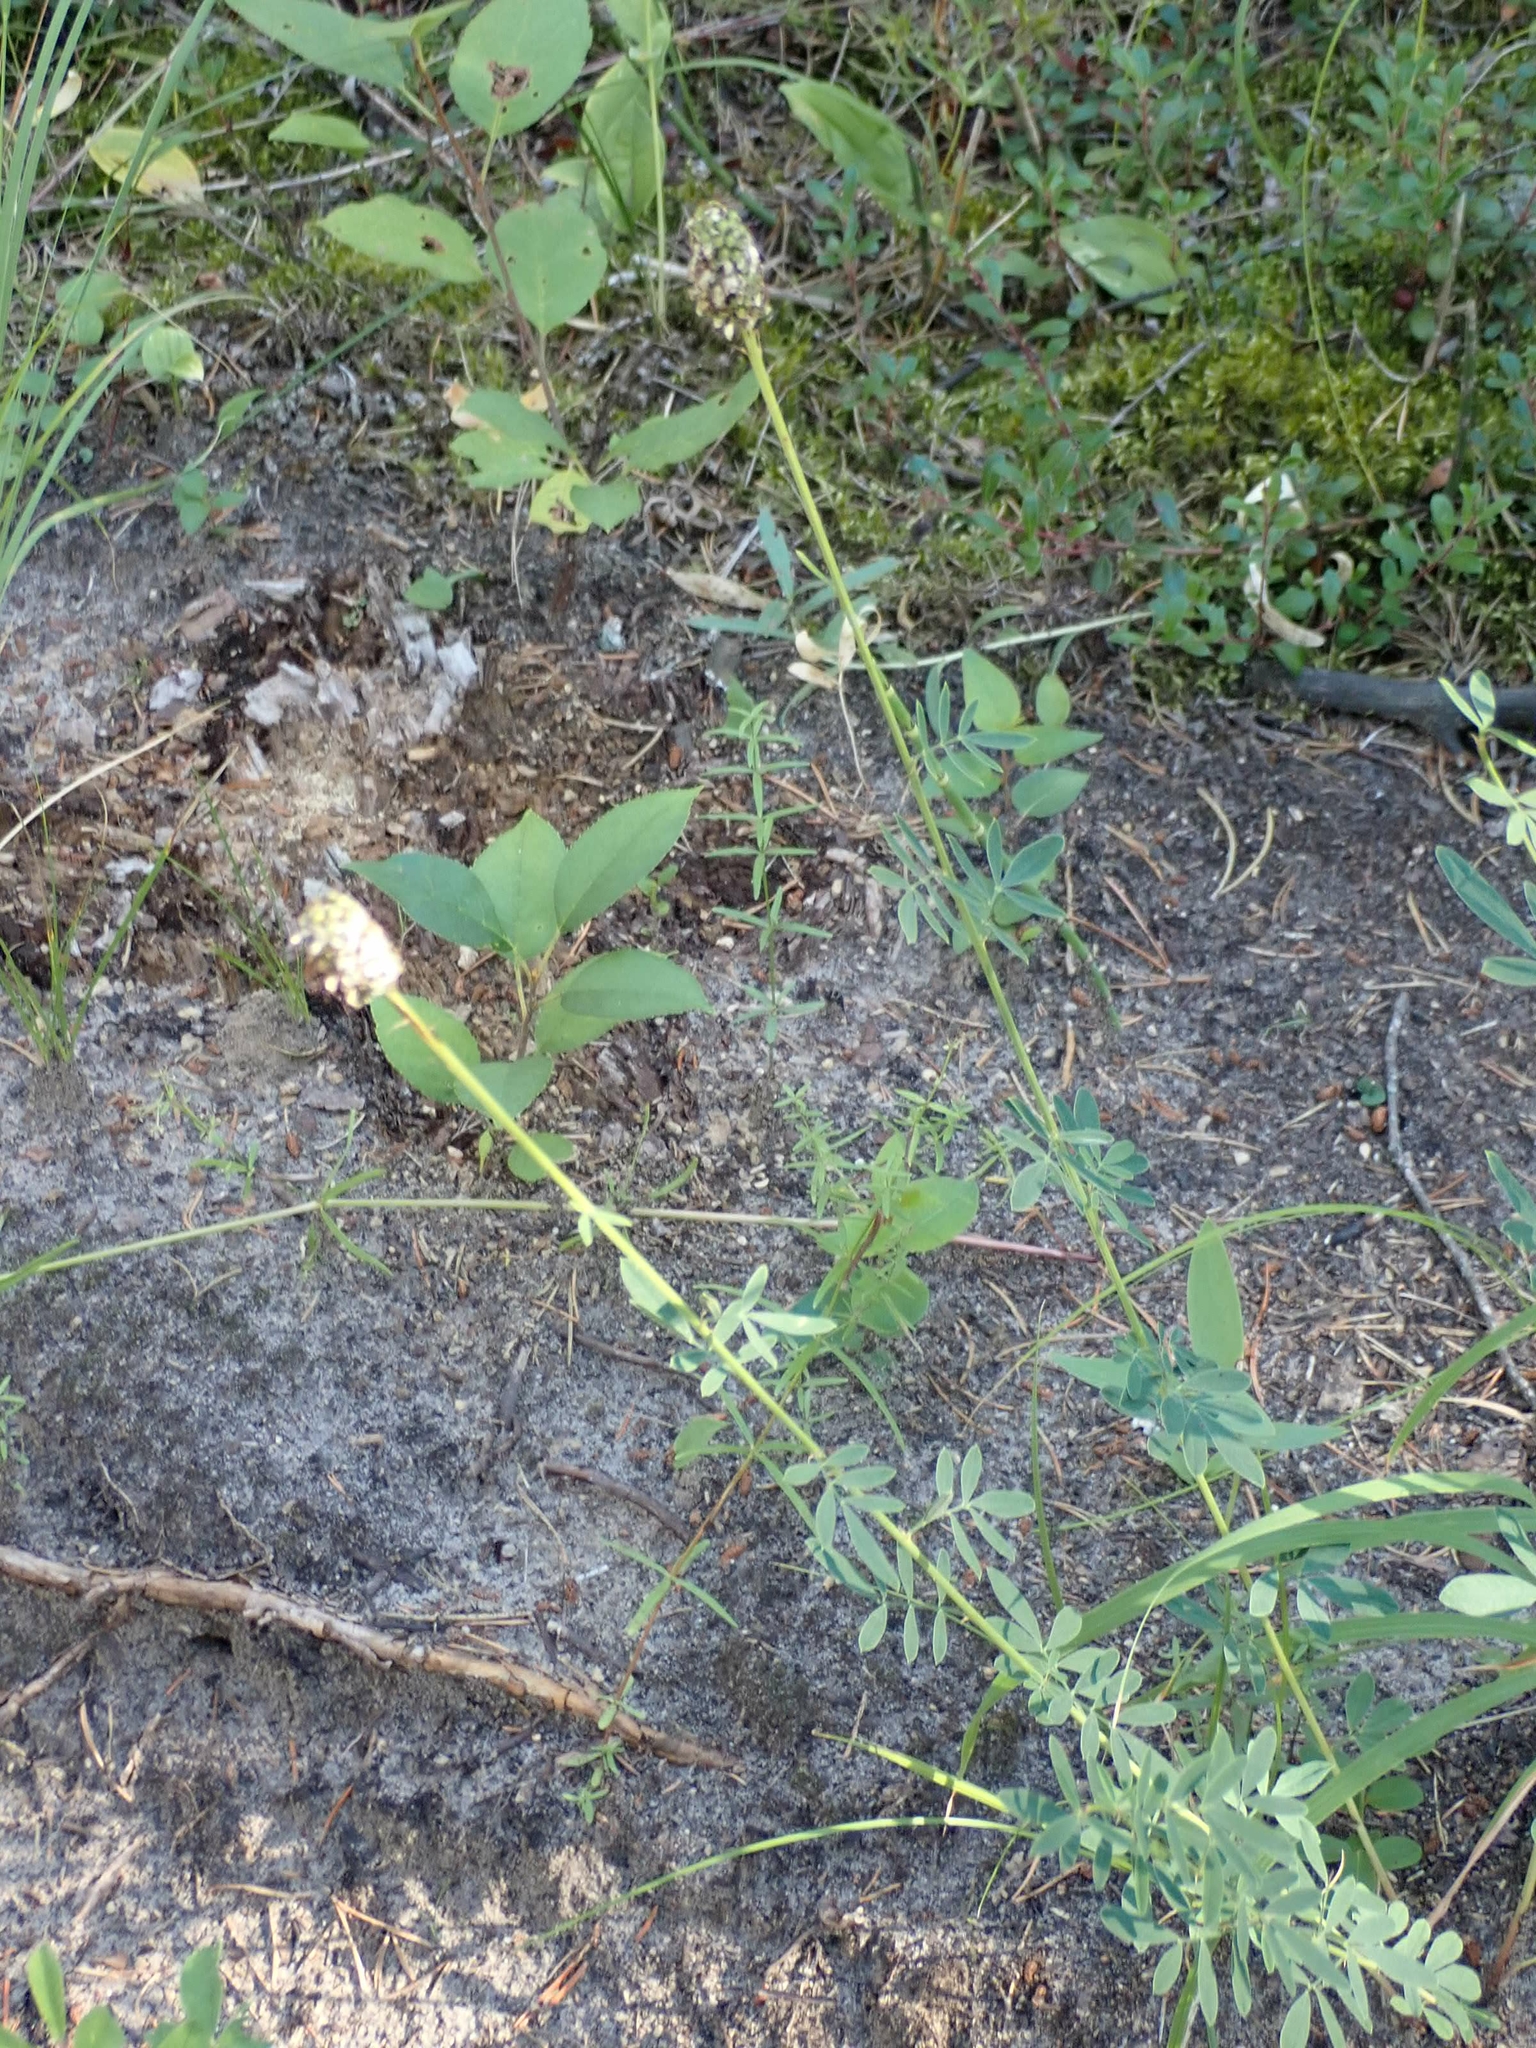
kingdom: Plantae
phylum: Tracheophyta
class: Magnoliopsida
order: Fabales
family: Fabaceae
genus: Dalea
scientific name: Dalea candida
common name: White prairie-clover
